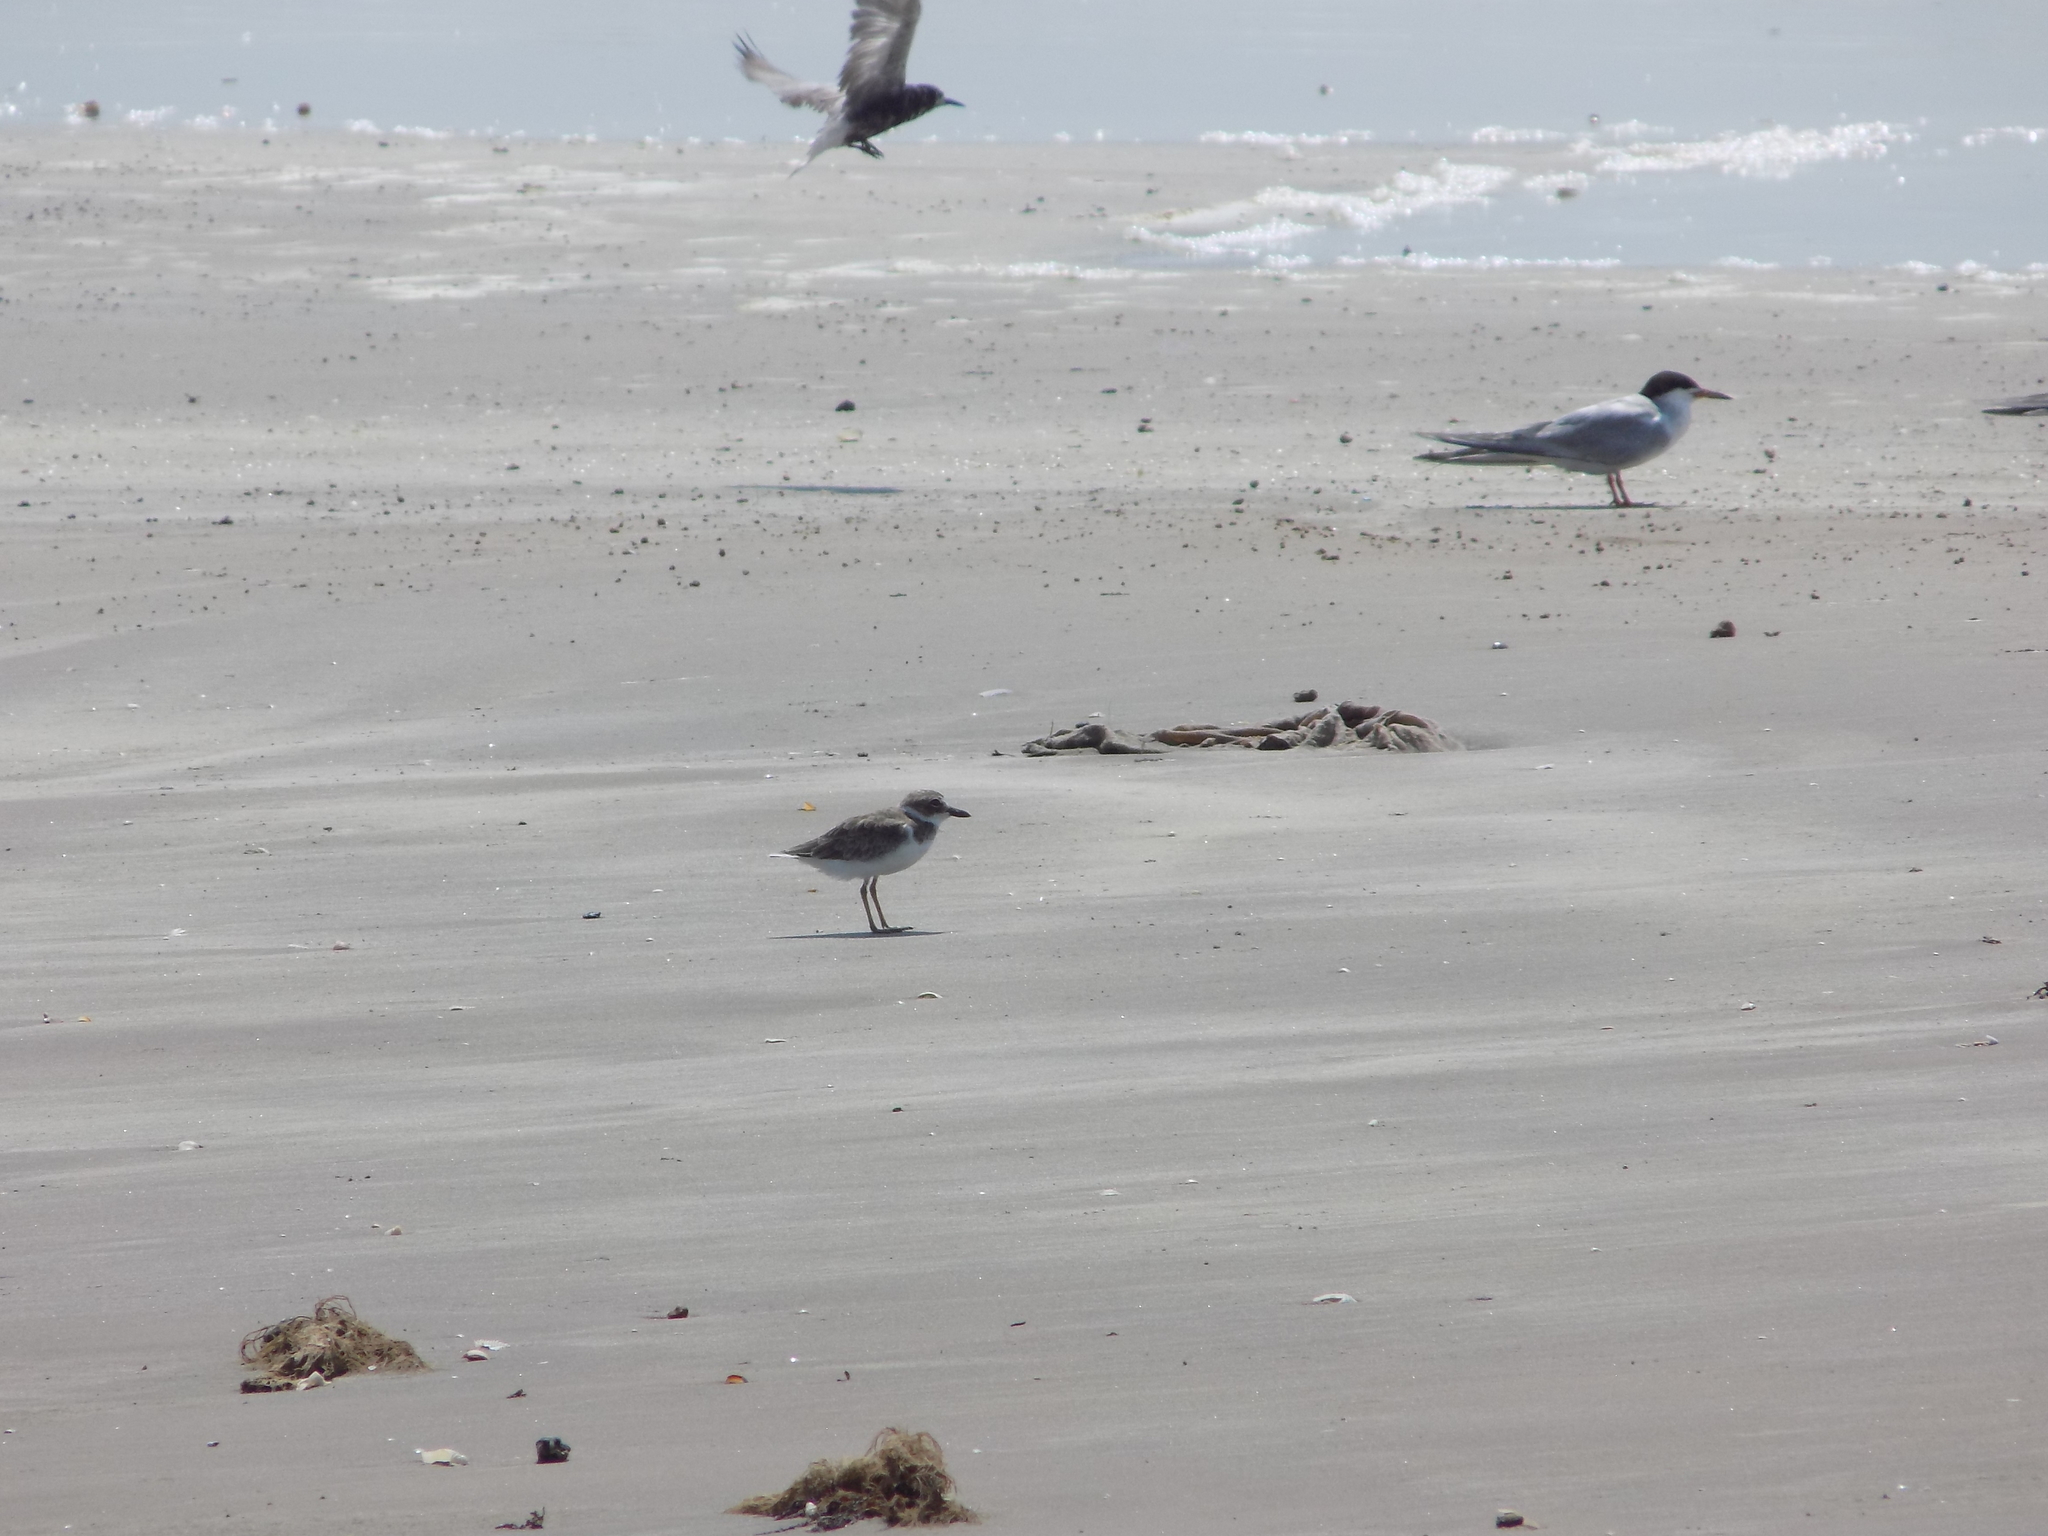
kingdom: Animalia
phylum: Chordata
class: Aves
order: Charadriiformes
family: Charadriidae
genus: Anarhynchus
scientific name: Anarhynchus
